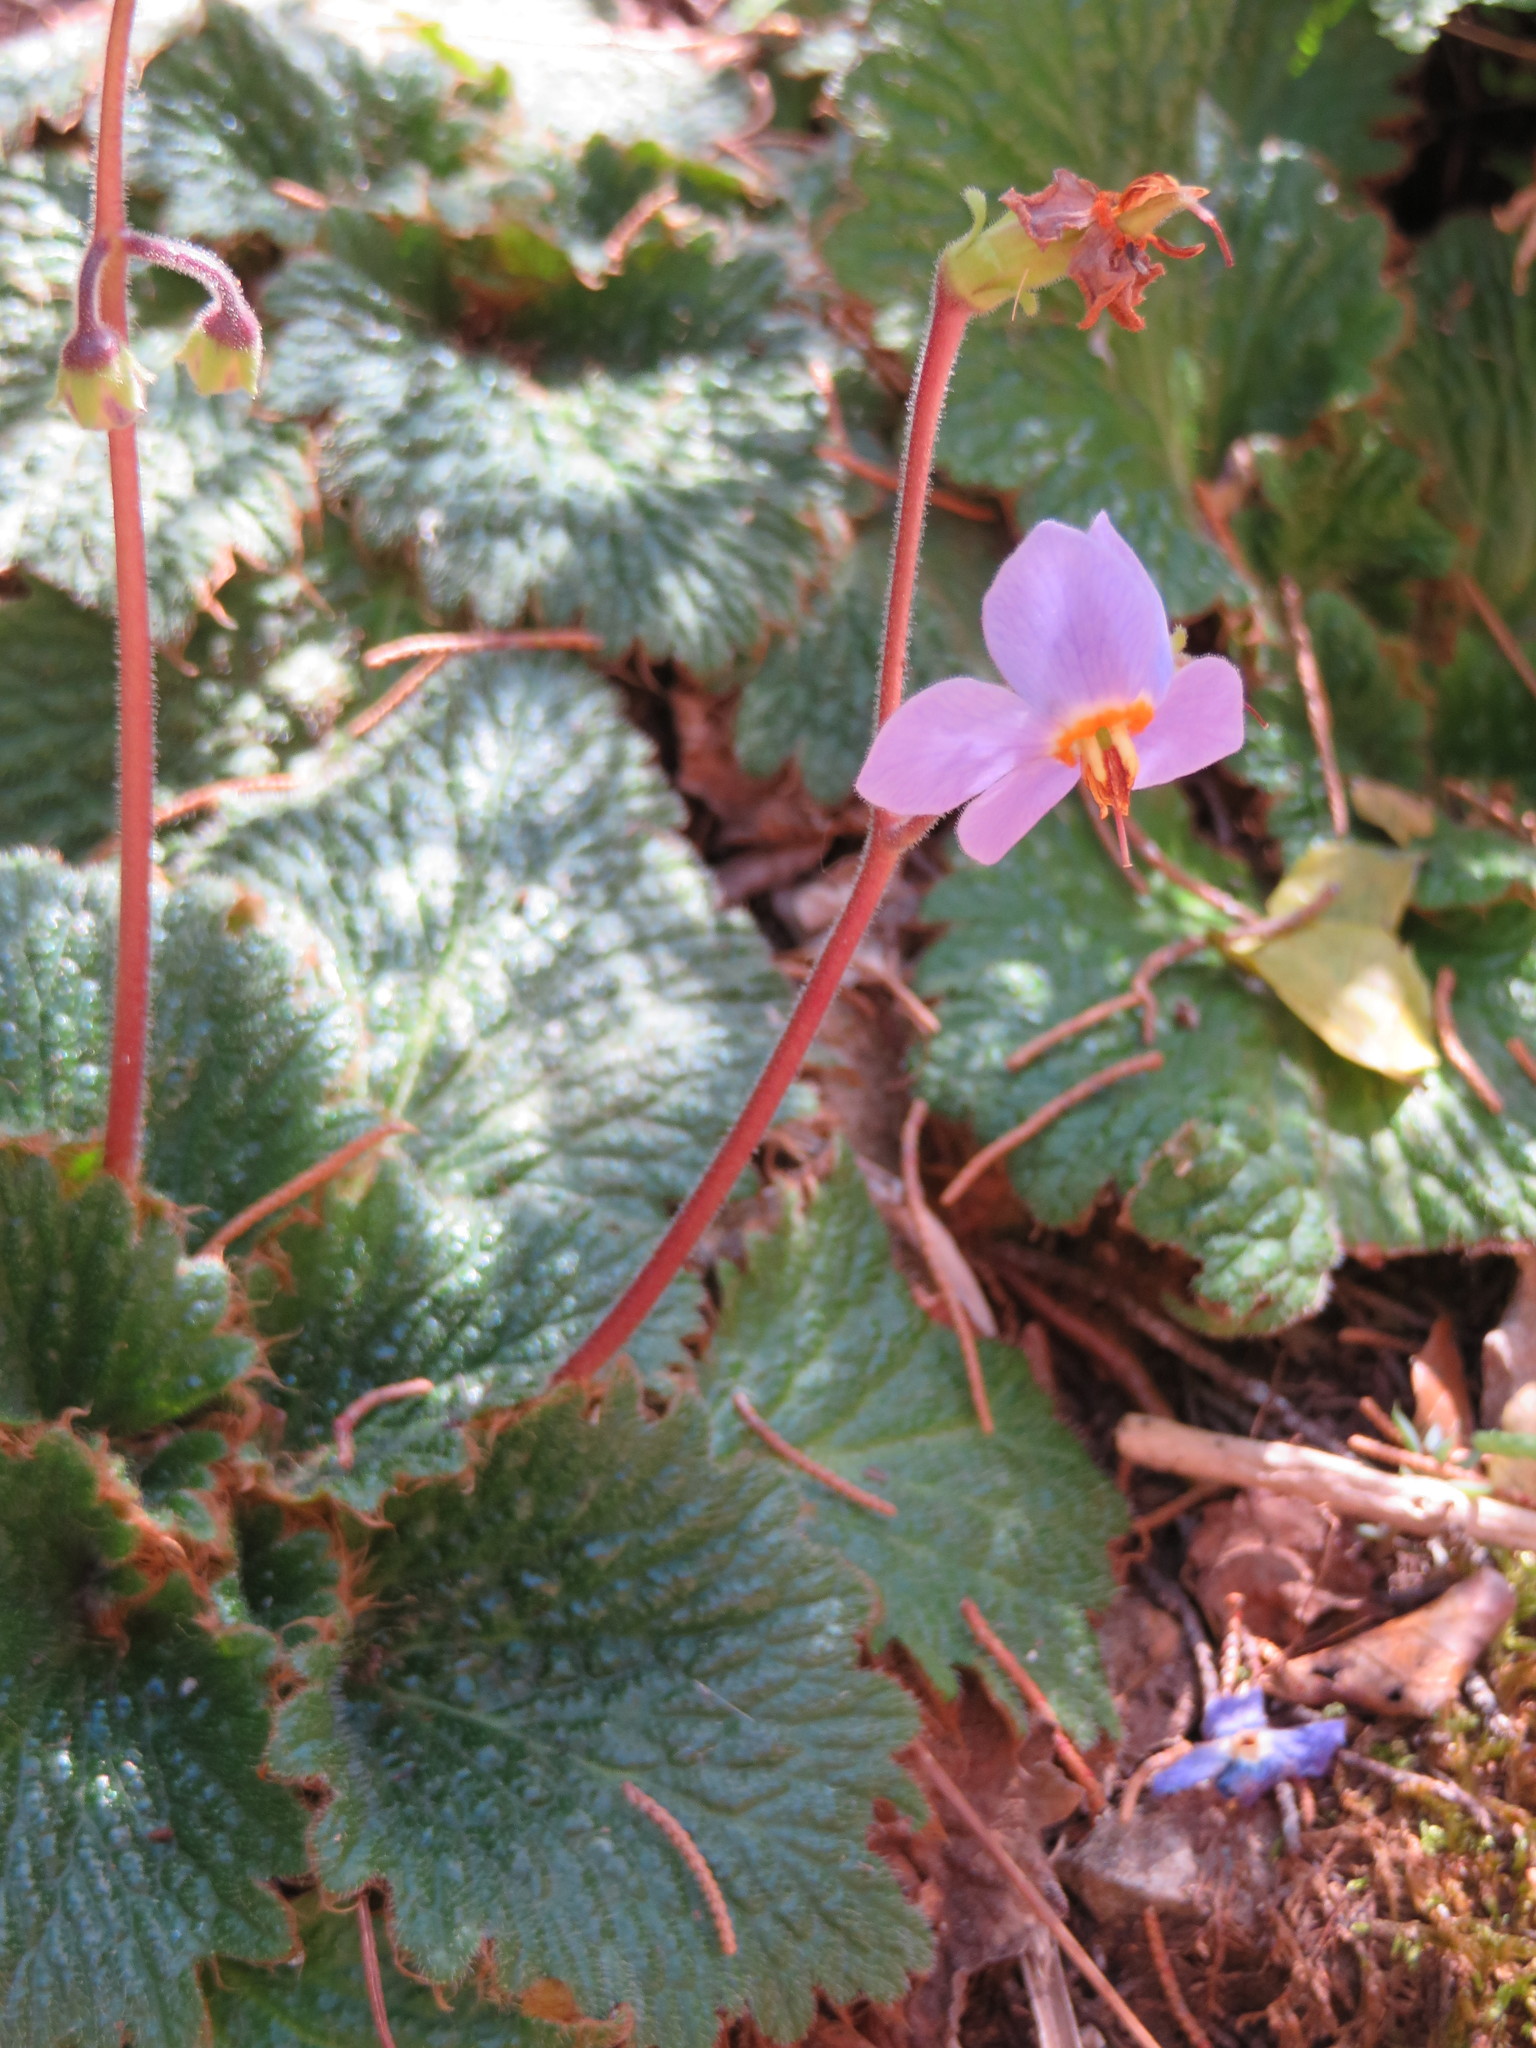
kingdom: Plantae
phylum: Tracheophyta
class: Magnoliopsida
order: Lamiales
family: Gesneriaceae
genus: Ramonda
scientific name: Ramonda myconi
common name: Pyrenean-violet
